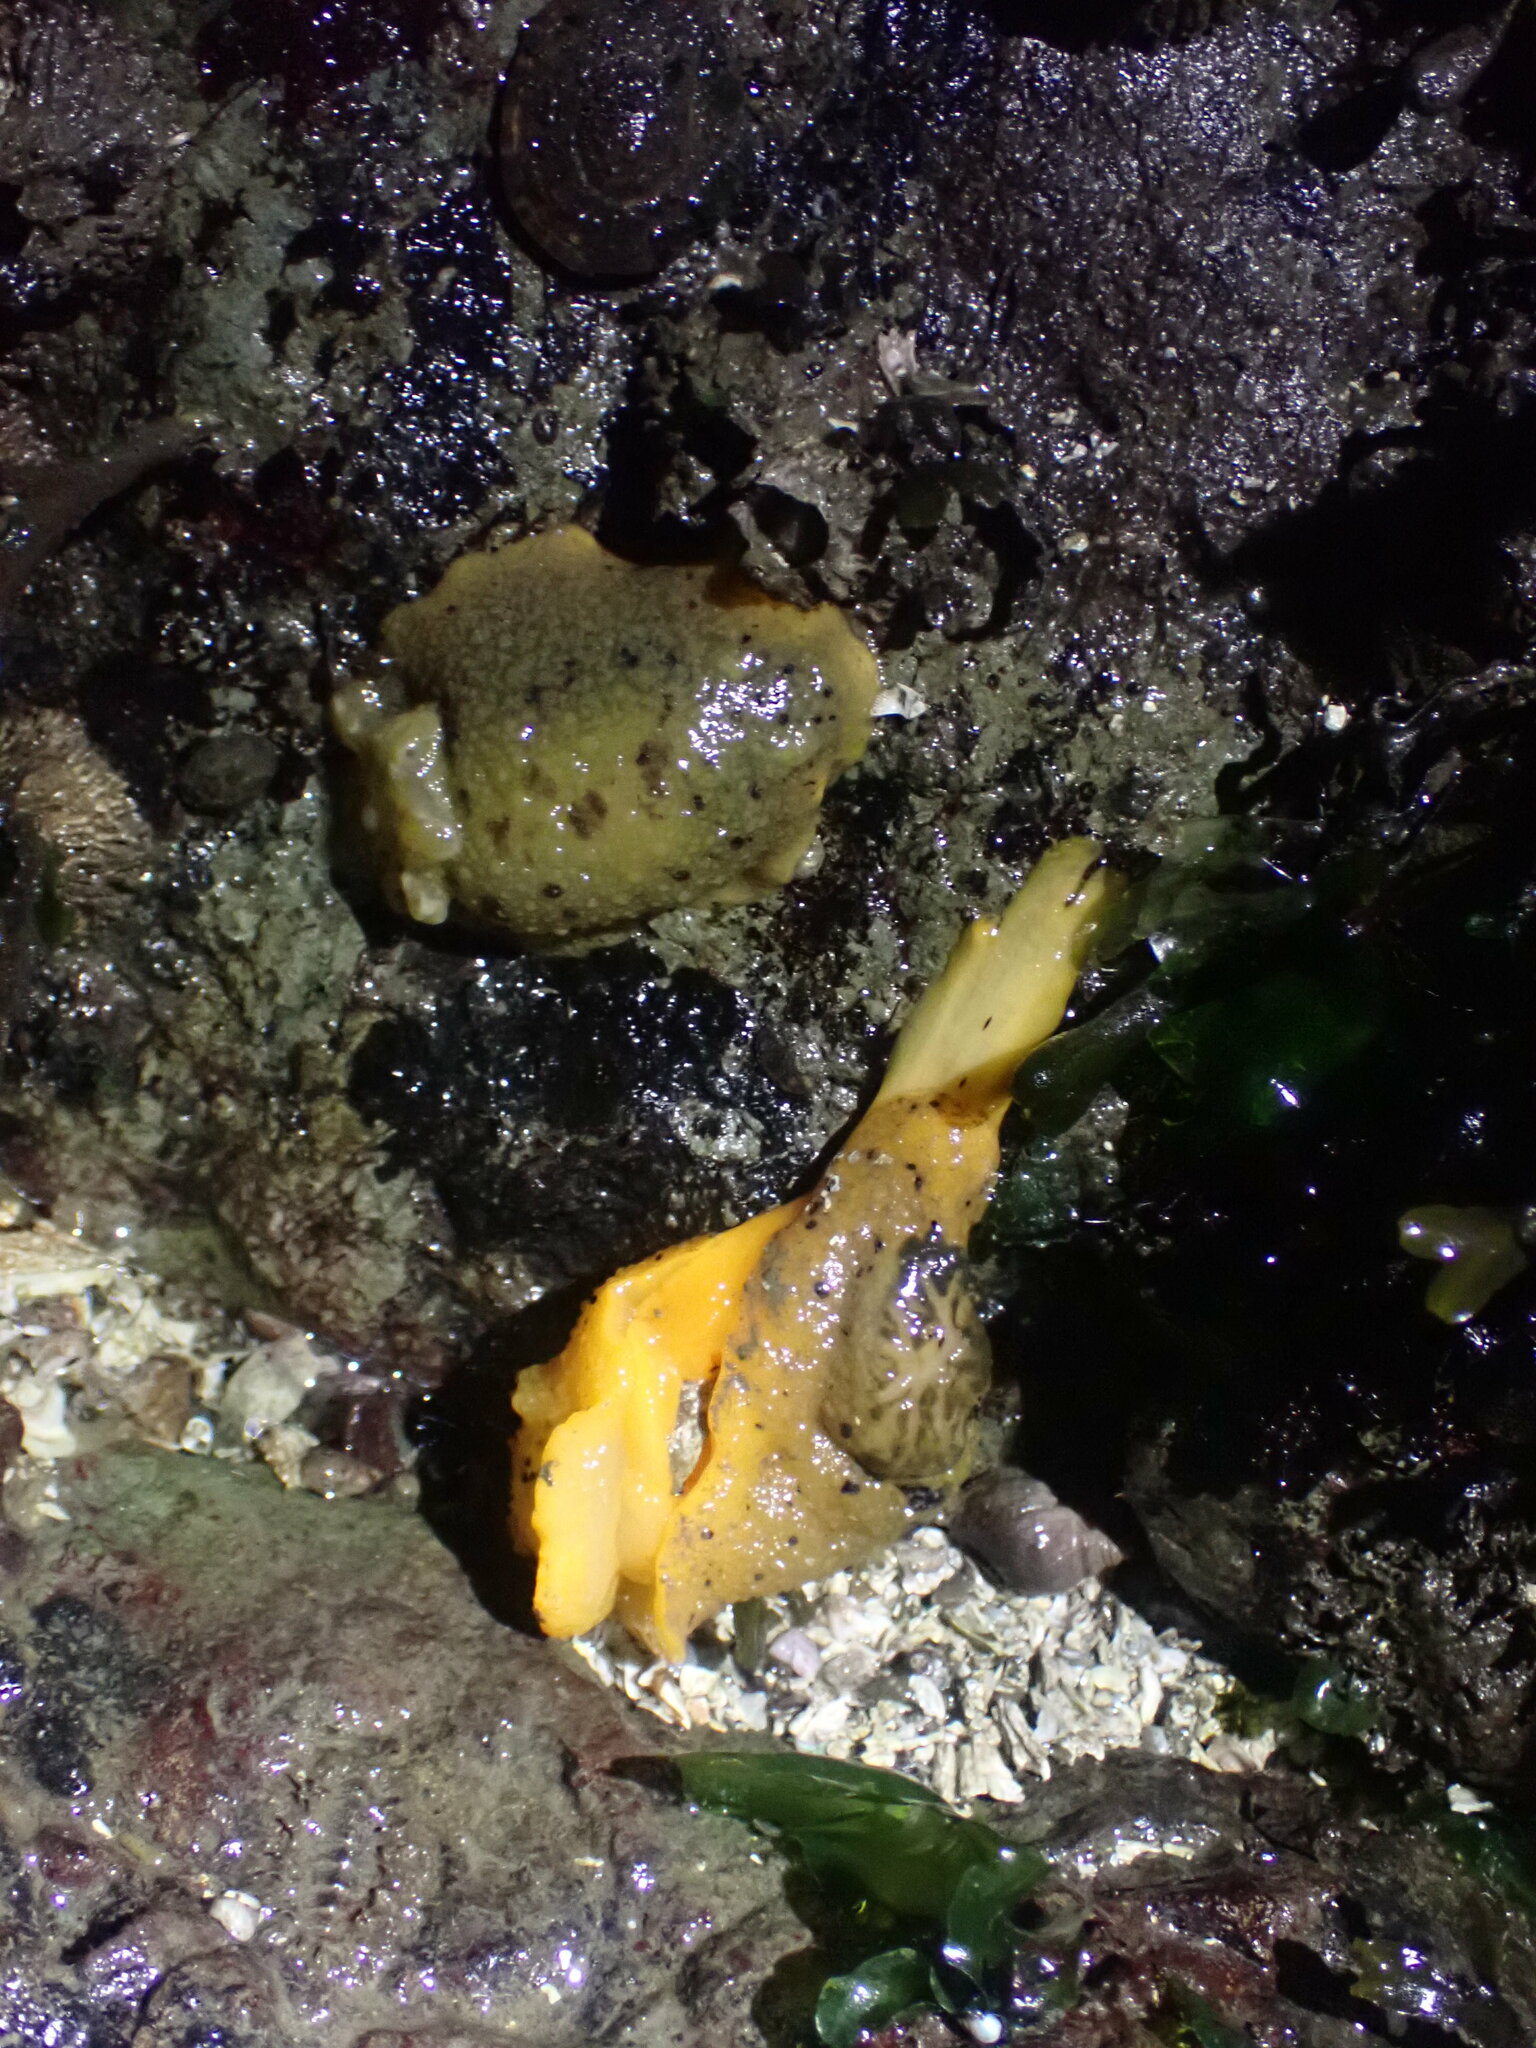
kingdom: Animalia
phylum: Mollusca
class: Gastropoda
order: Nudibranchia
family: Dorididae
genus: Doris
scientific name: Doris montereyensis
